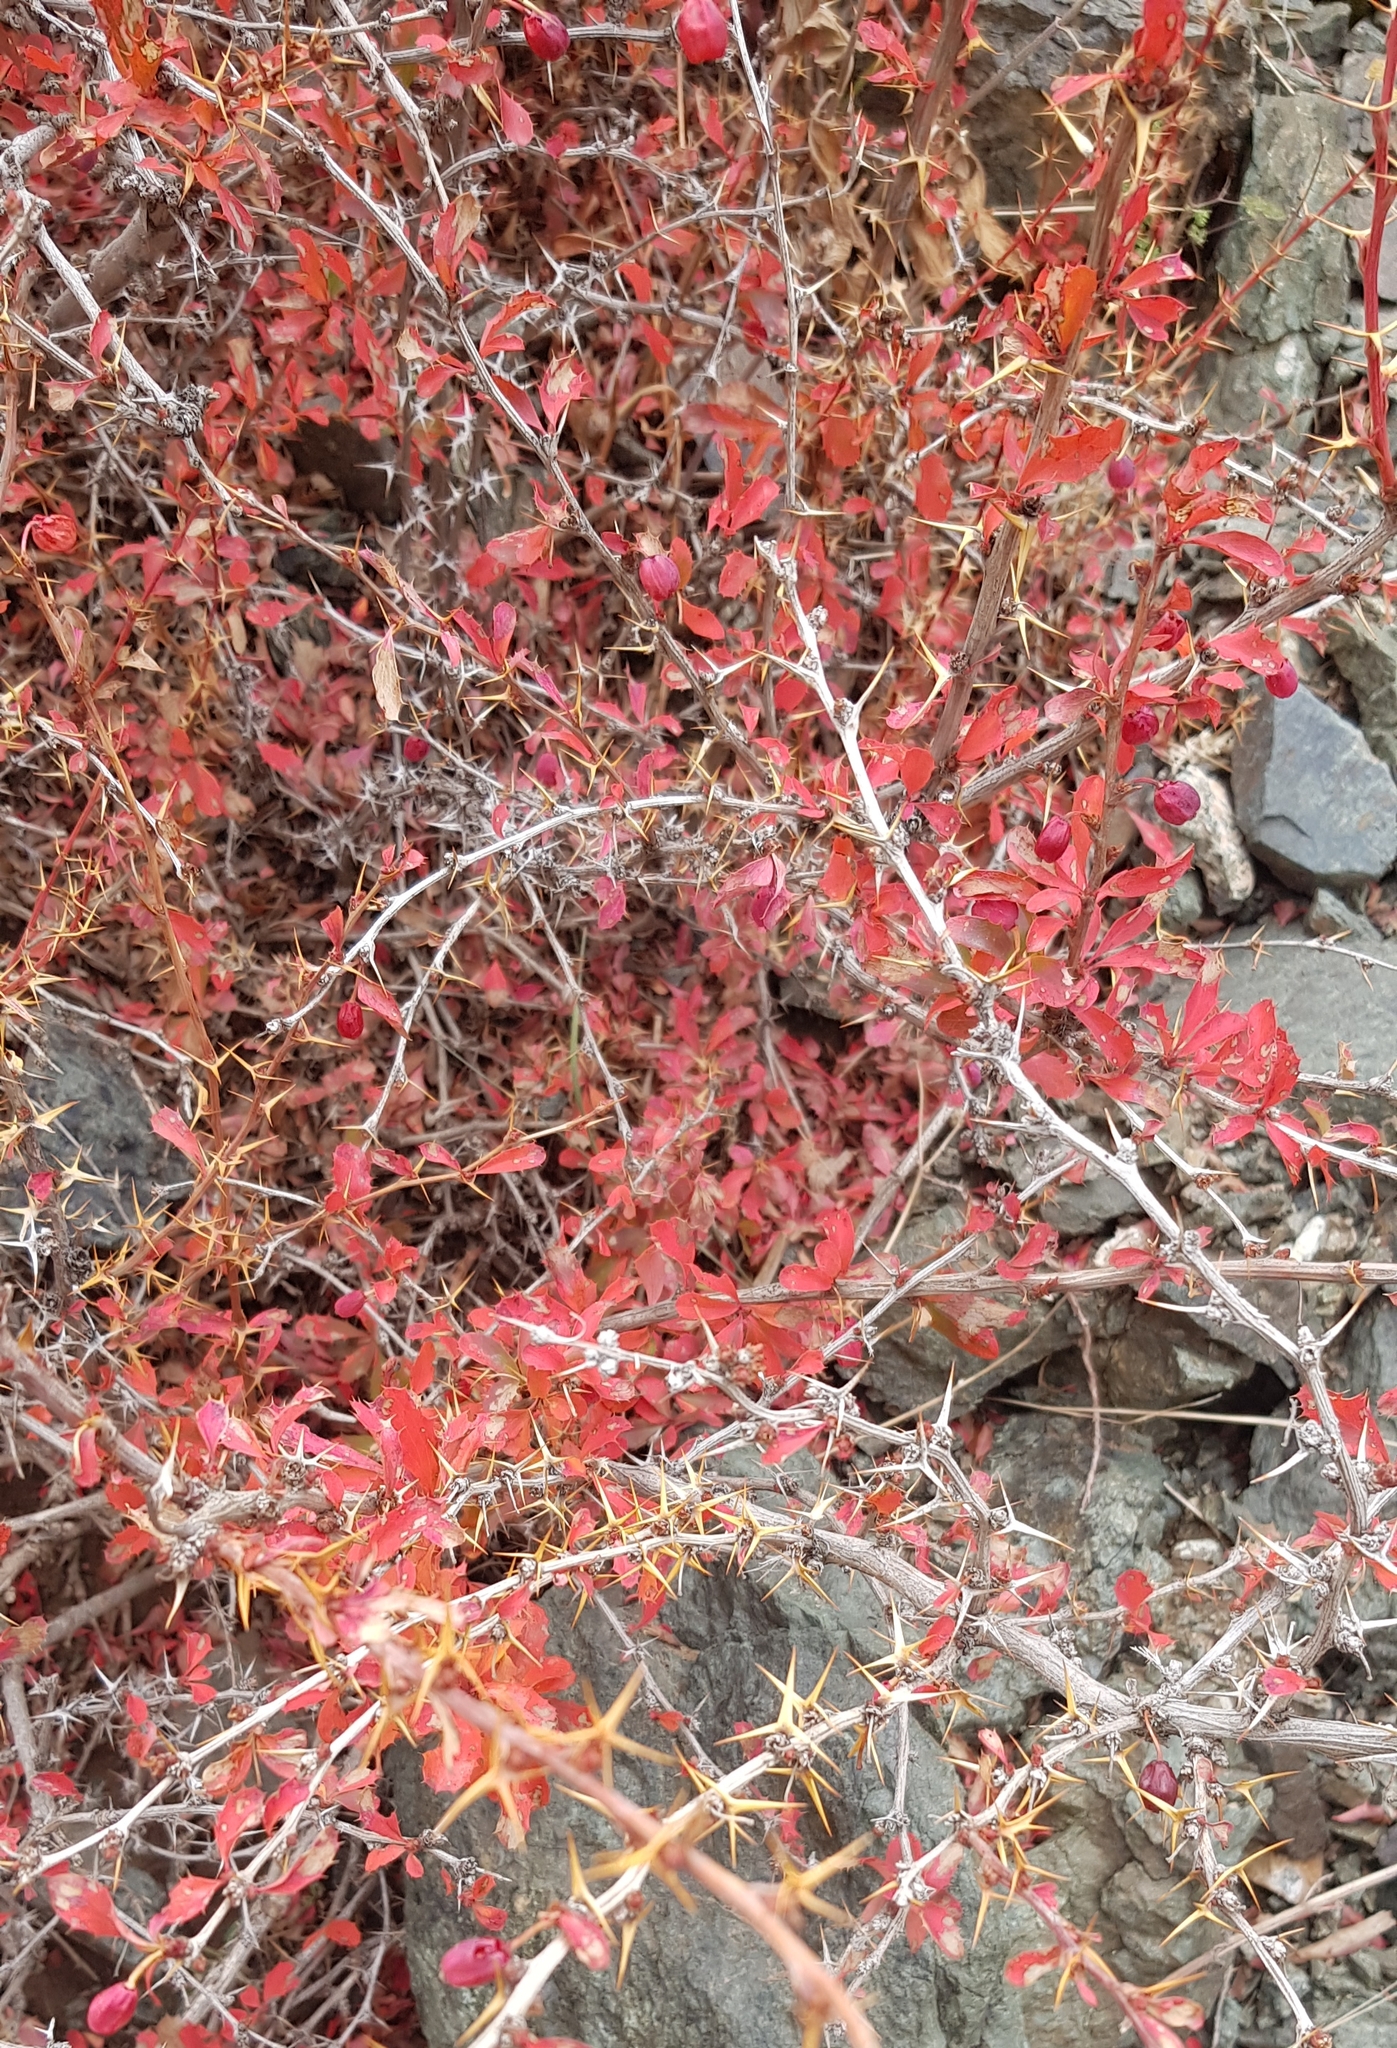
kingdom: Plantae
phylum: Tracheophyta
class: Magnoliopsida
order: Ranunculales
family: Berberidaceae
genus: Berberis
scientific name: Berberis sibirica
